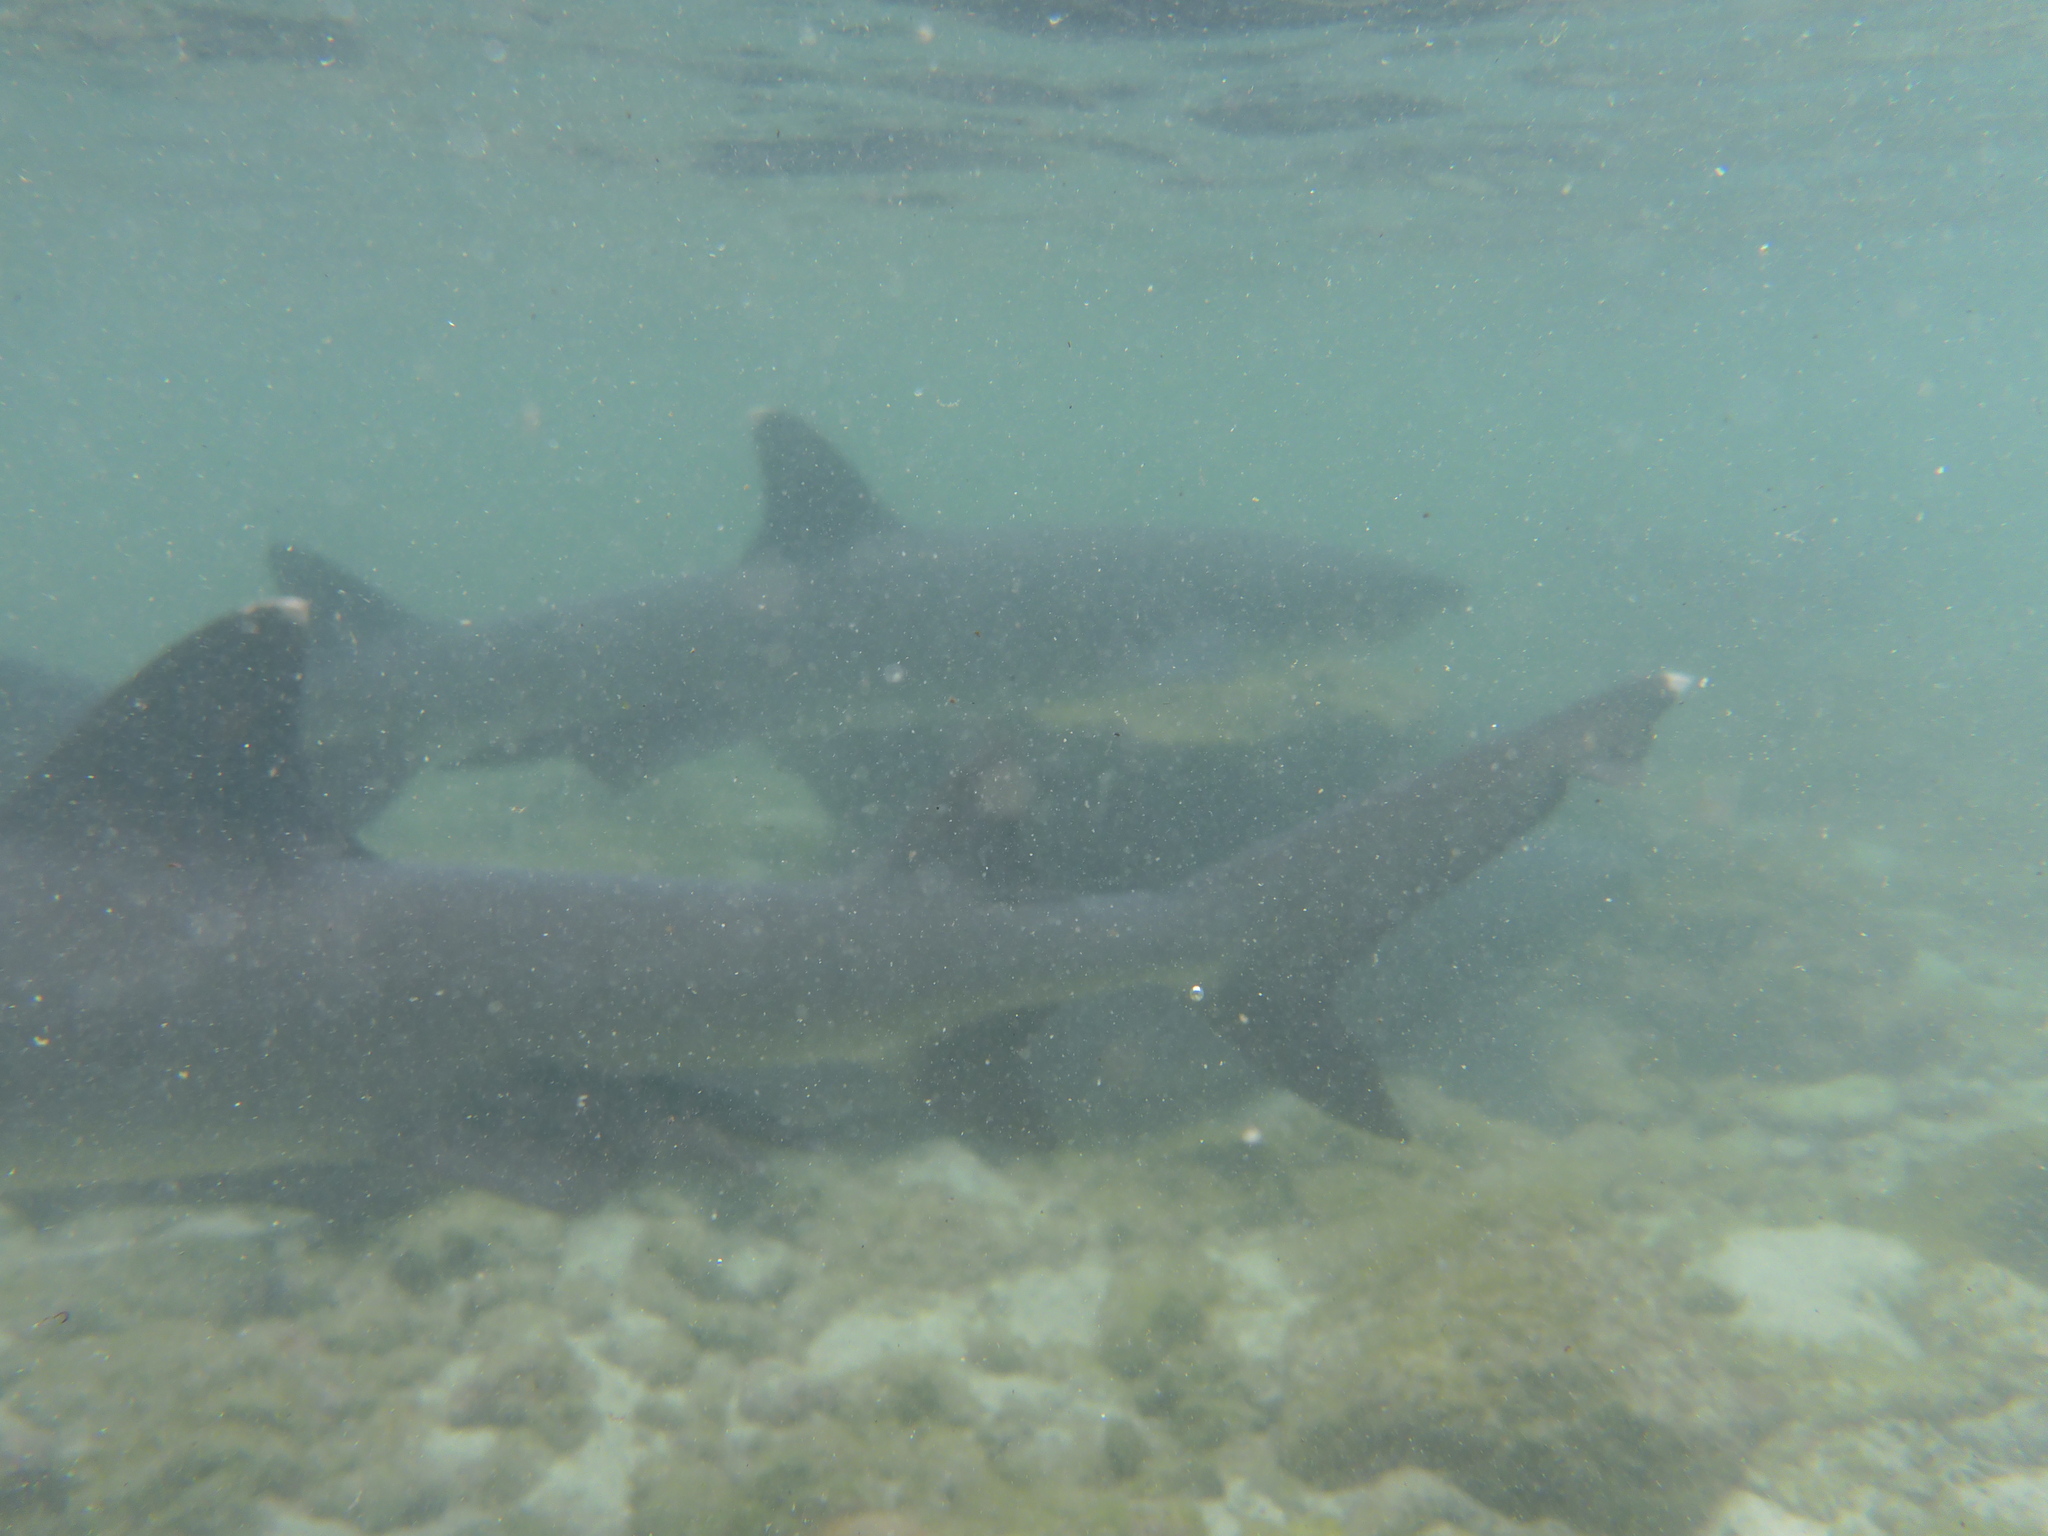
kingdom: Animalia
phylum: Chordata
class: Elasmobranchii
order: Carcharhiniformes
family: Carcharhinidae
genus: Triaenodon
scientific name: Triaenodon obesus
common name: Whitetip reef shark
